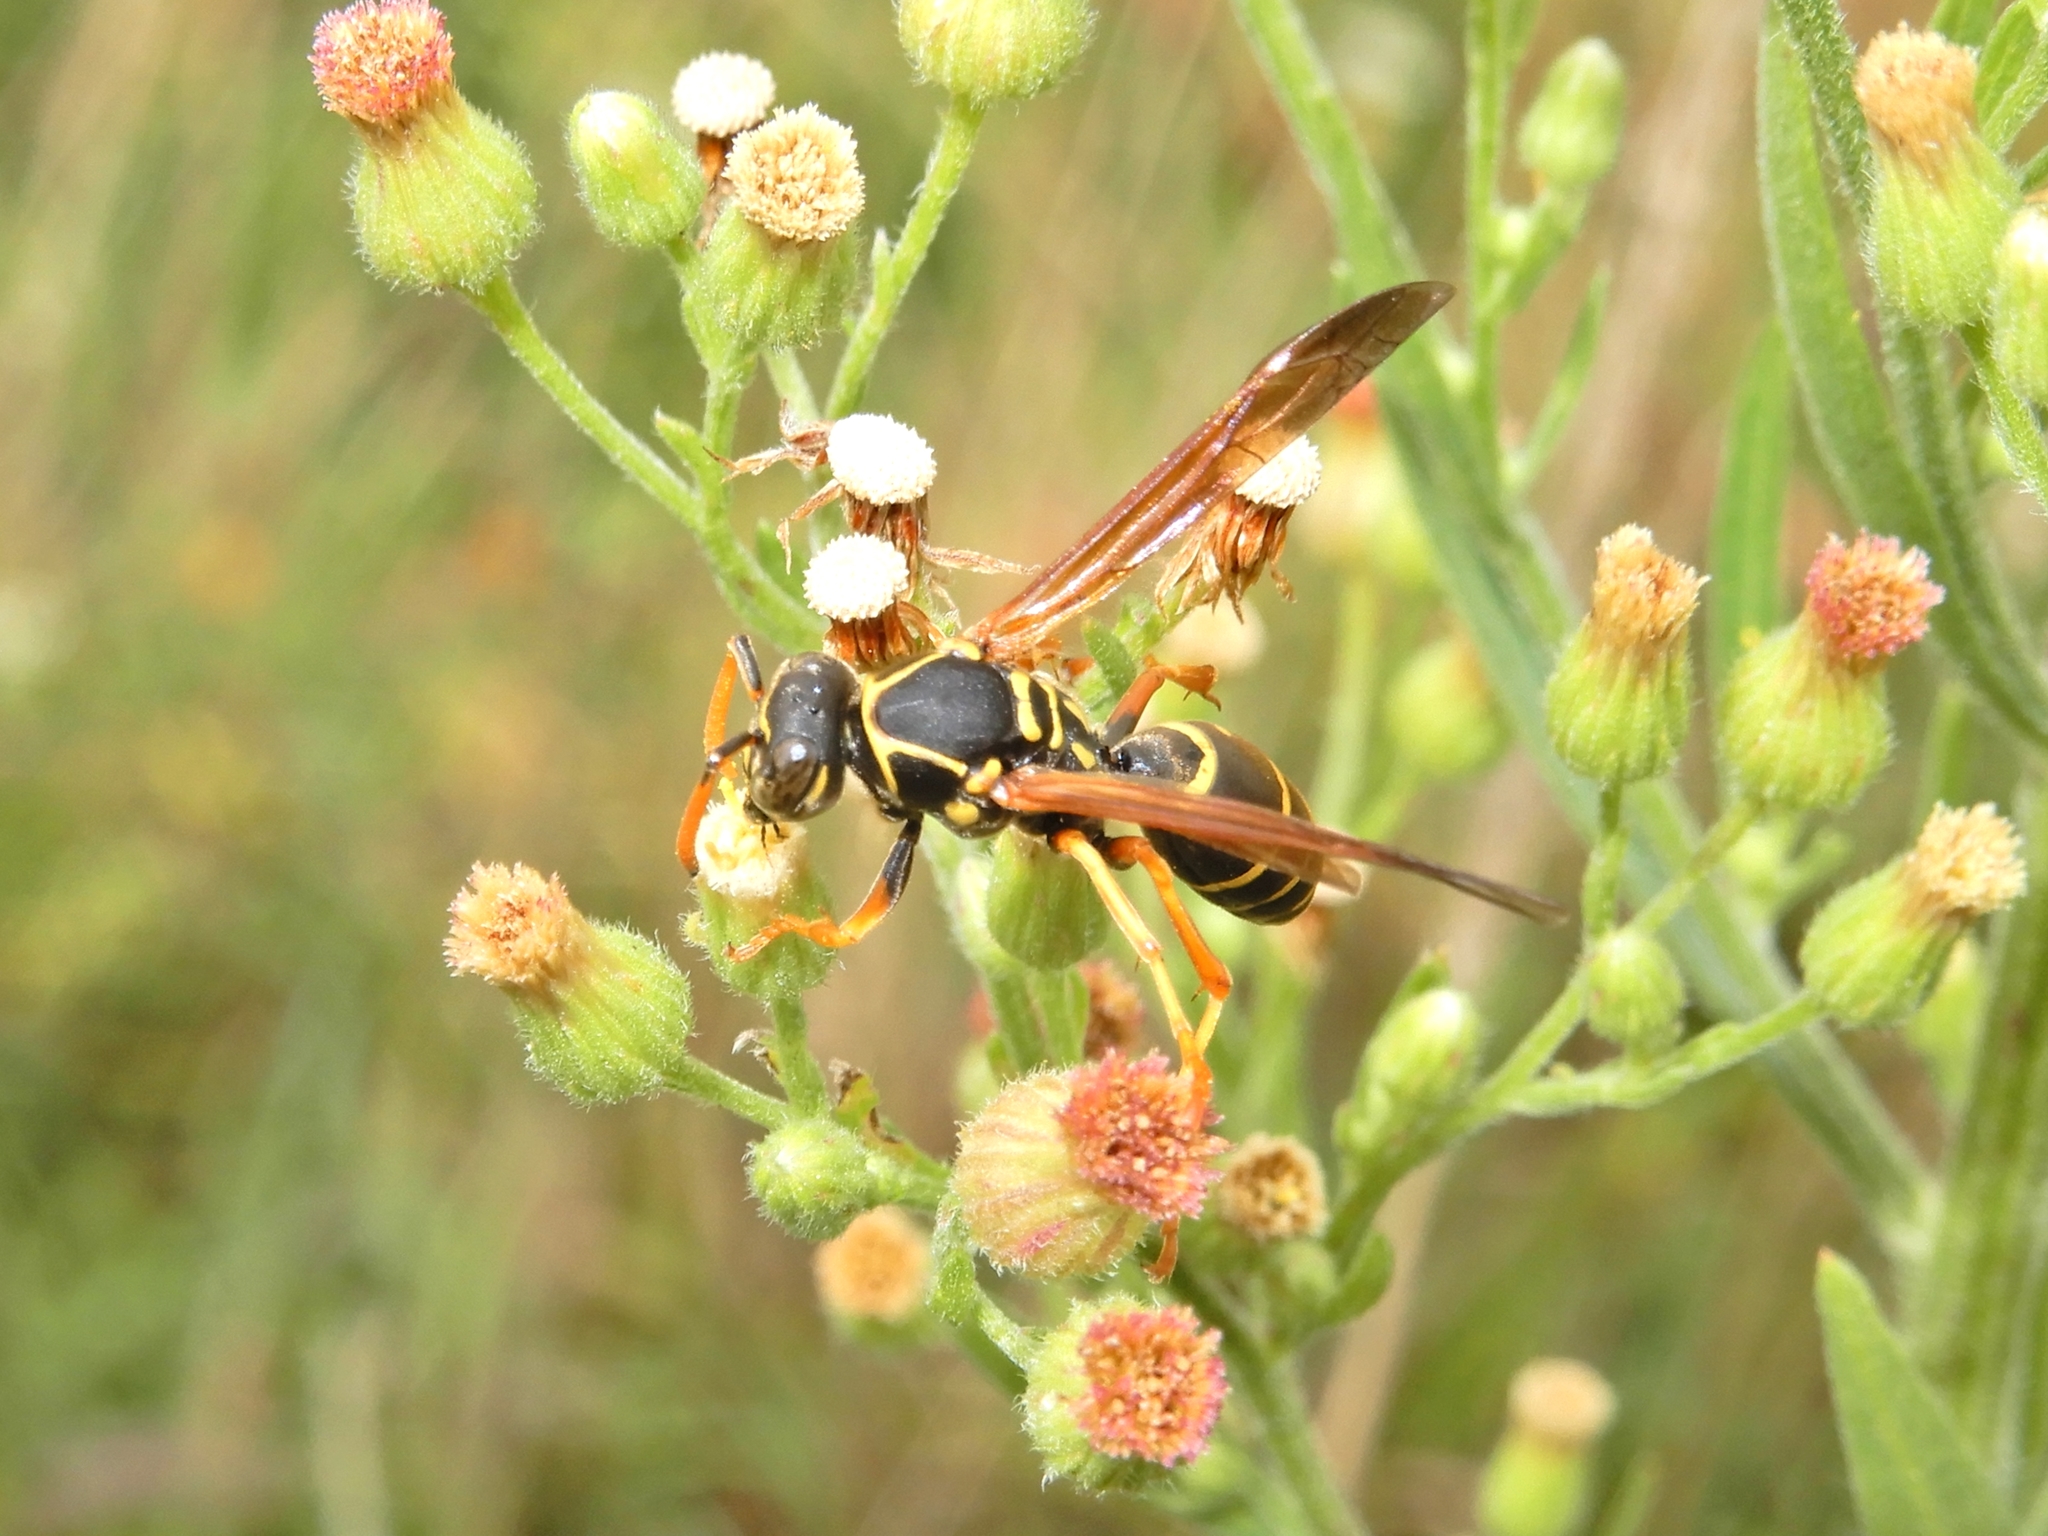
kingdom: Animalia
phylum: Arthropoda
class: Insecta
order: Hymenoptera
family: Eumenidae
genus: Polistes
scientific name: Polistes chinensis
